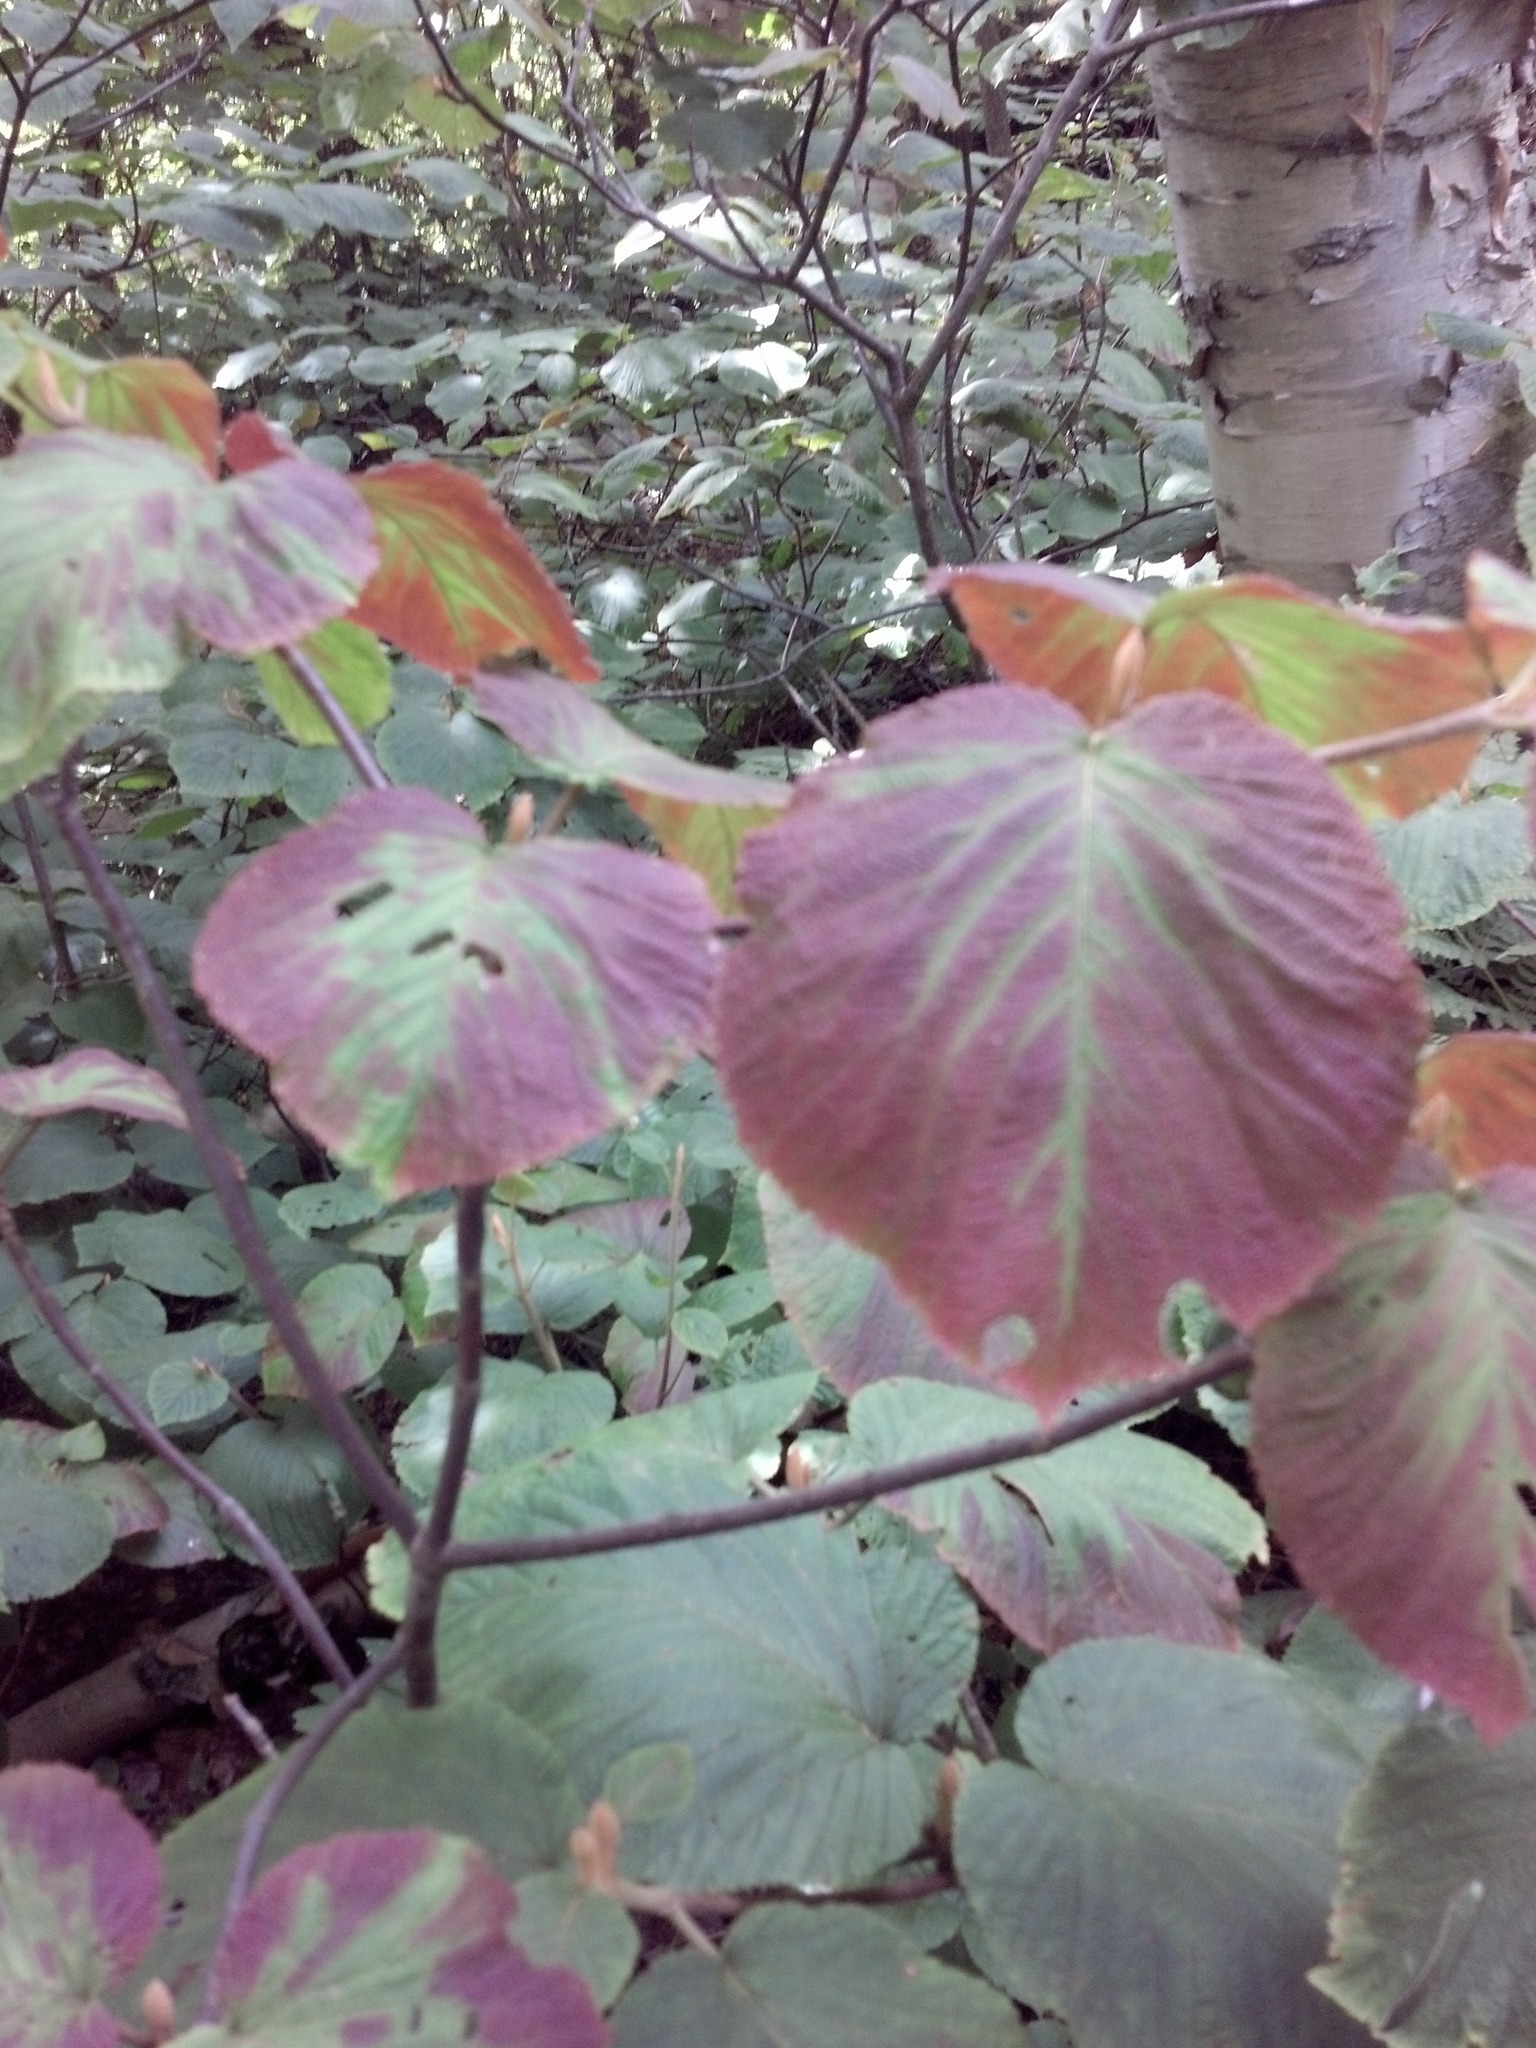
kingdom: Plantae
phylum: Tracheophyta
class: Magnoliopsida
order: Dipsacales
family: Viburnaceae
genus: Viburnum
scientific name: Viburnum lantanoides
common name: Hobblebush
